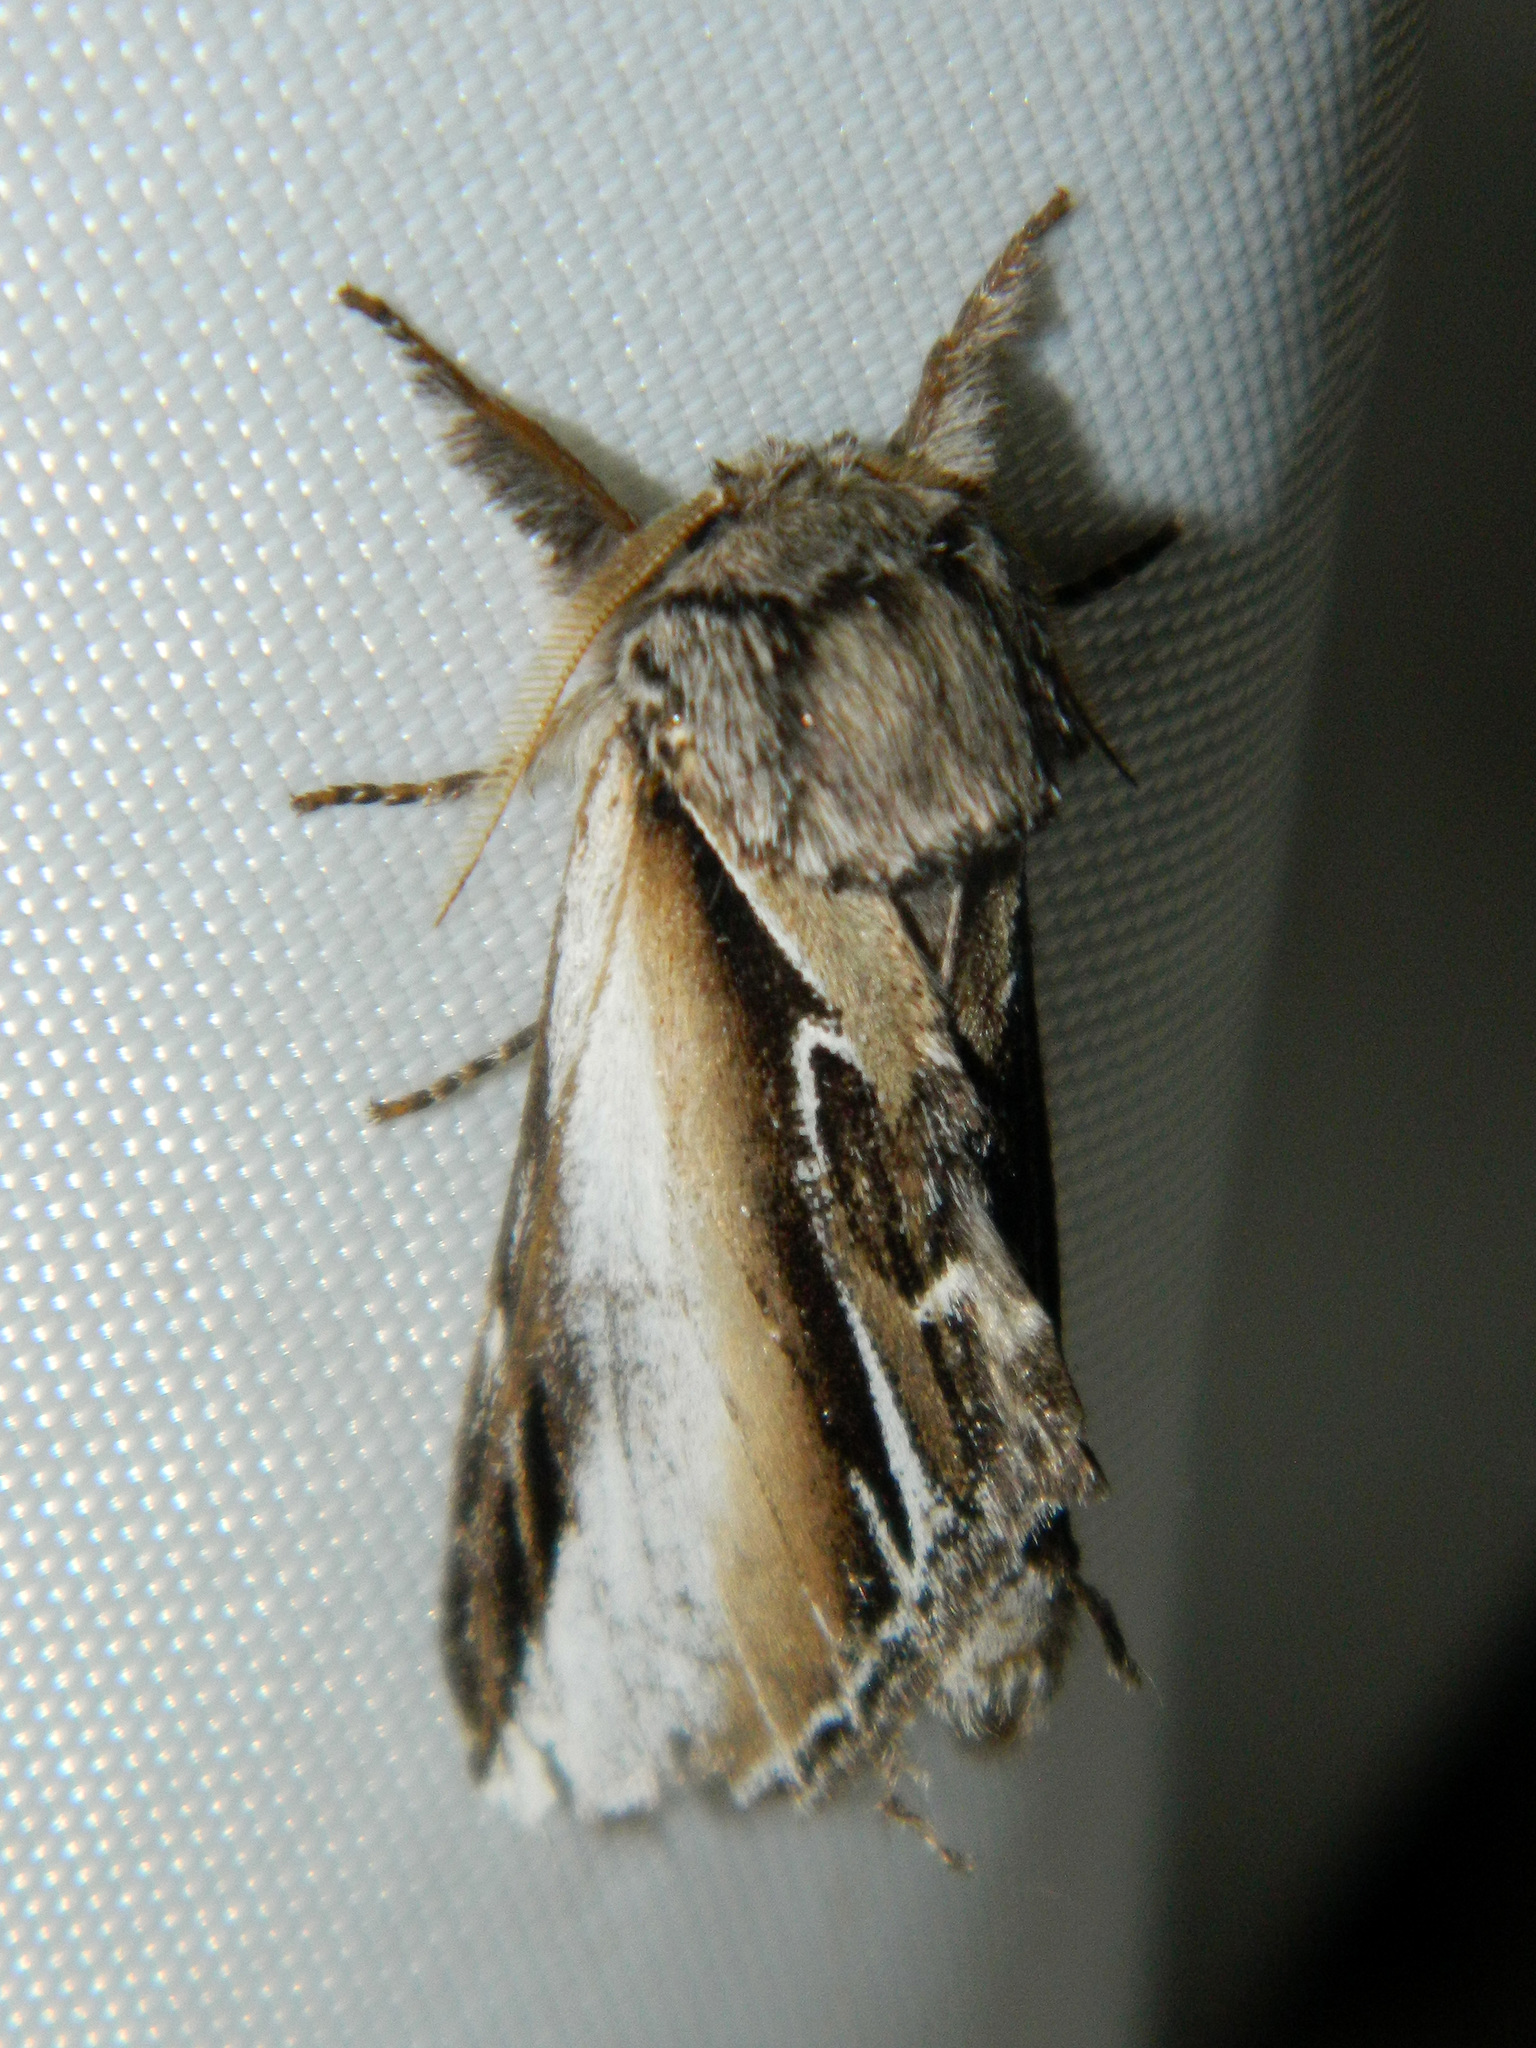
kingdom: Animalia
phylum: Arthropoda
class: Insecta
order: Lepidoptera
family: Notodontidae
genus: Pheosia
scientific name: Pheosia rimosa
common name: Black-rimmed prominent
